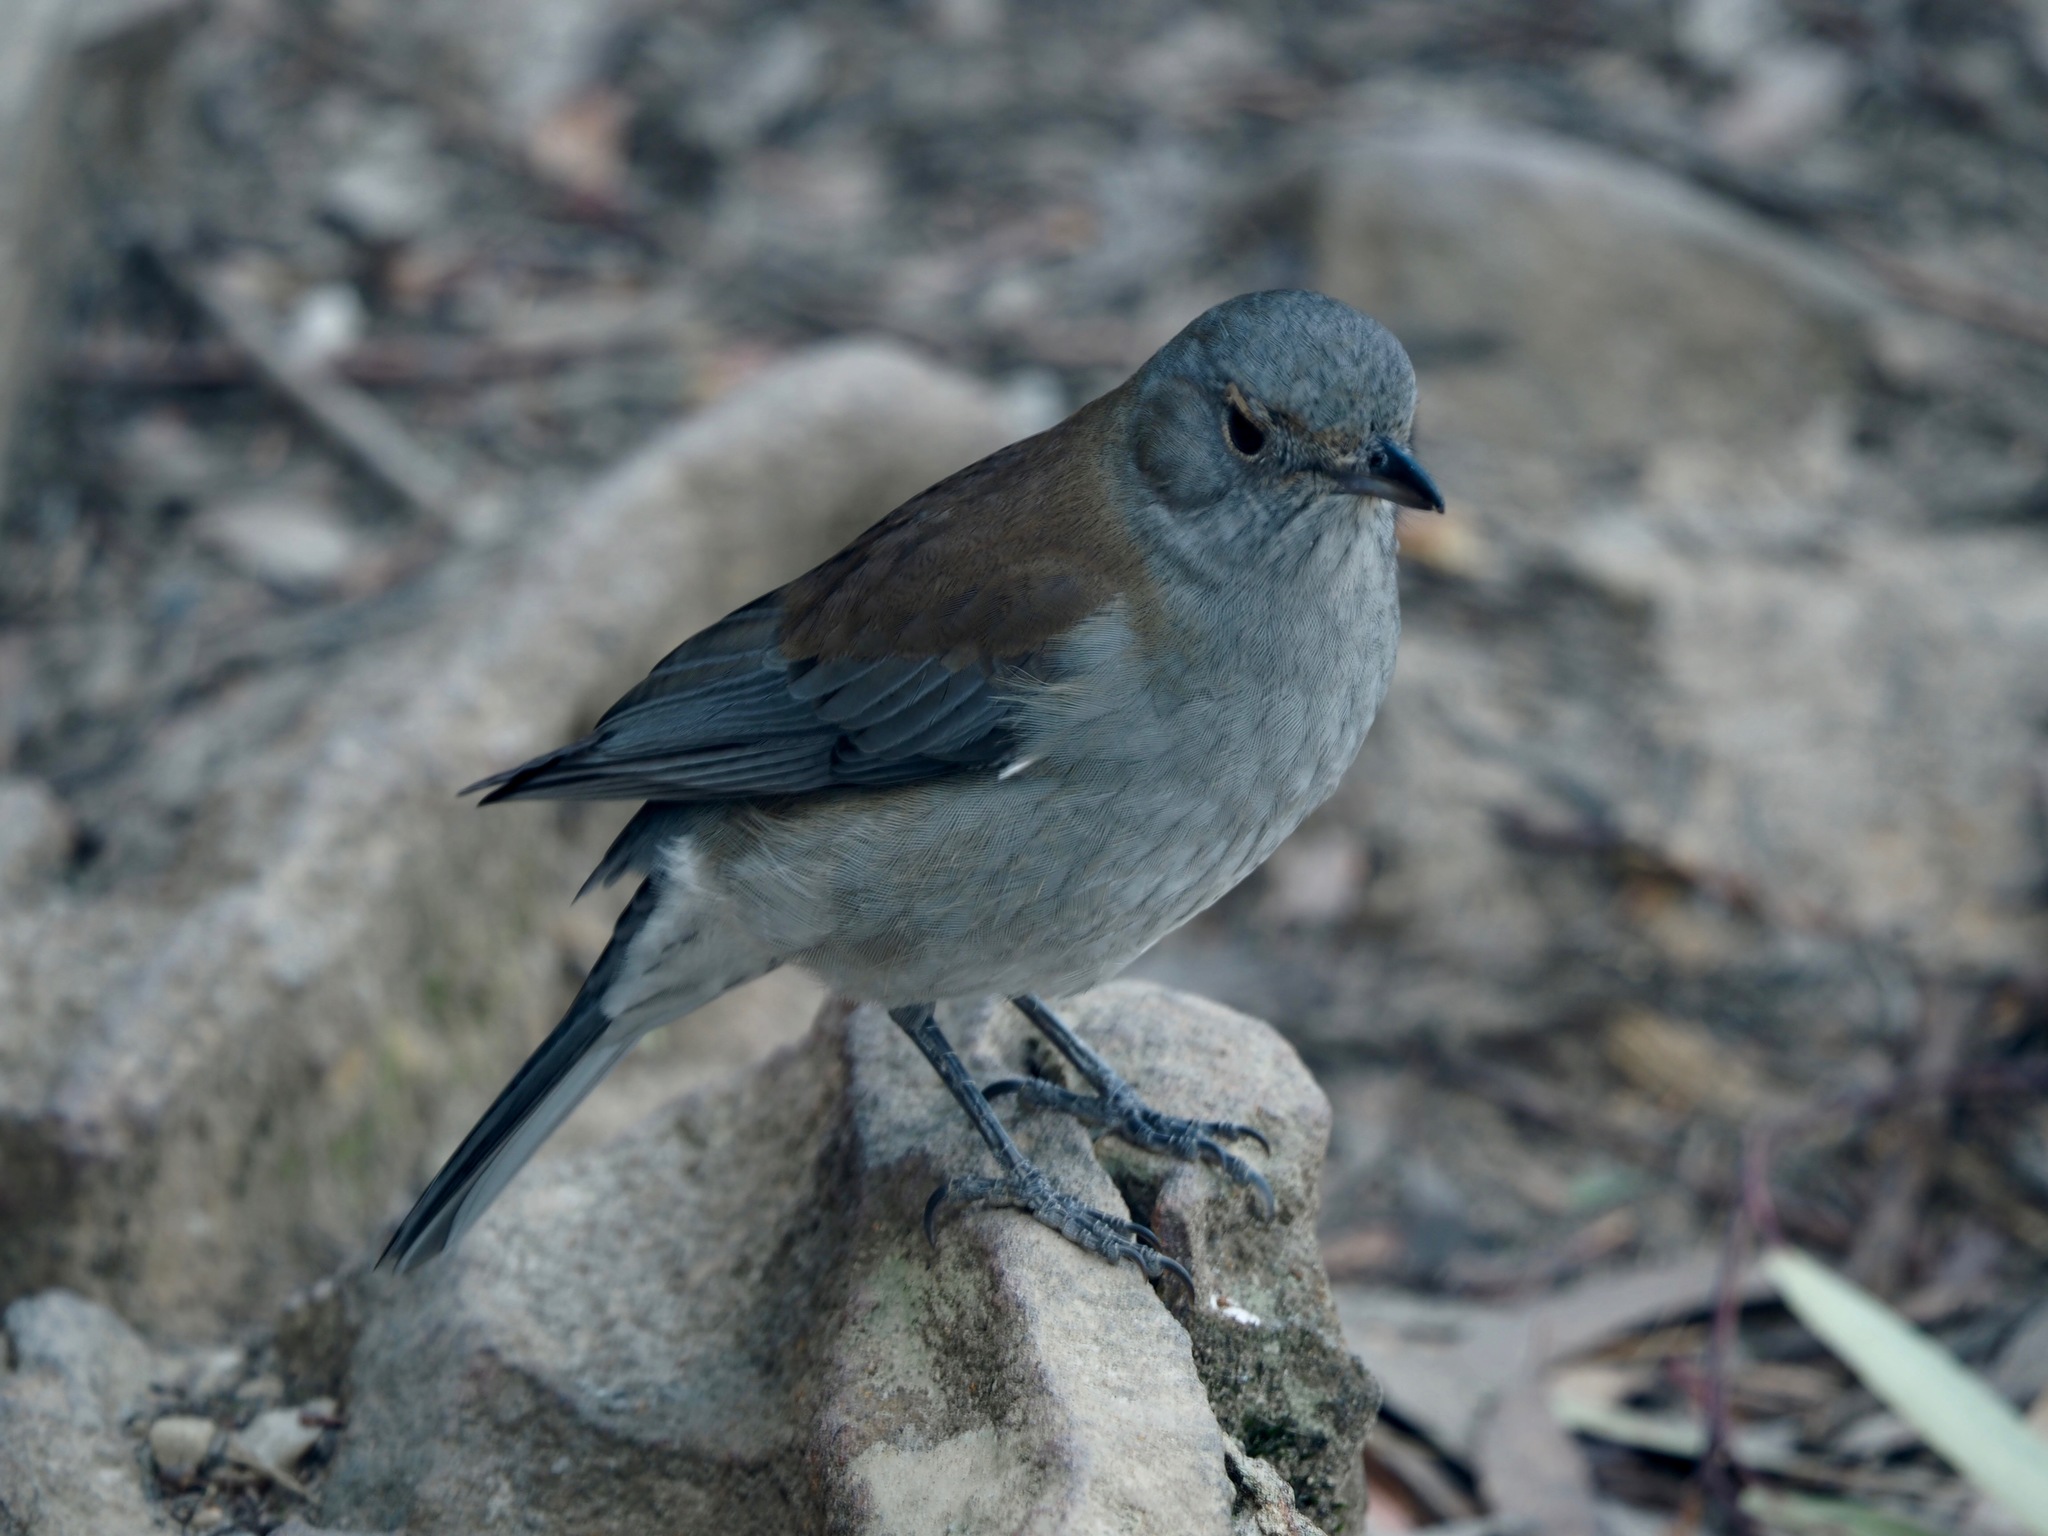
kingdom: Animalia
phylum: Chordata
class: Aves
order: Passeriformes
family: Pachycephalidae
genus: Colluricincla
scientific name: Colluricincla harmonica
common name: Grey shrikethrush
